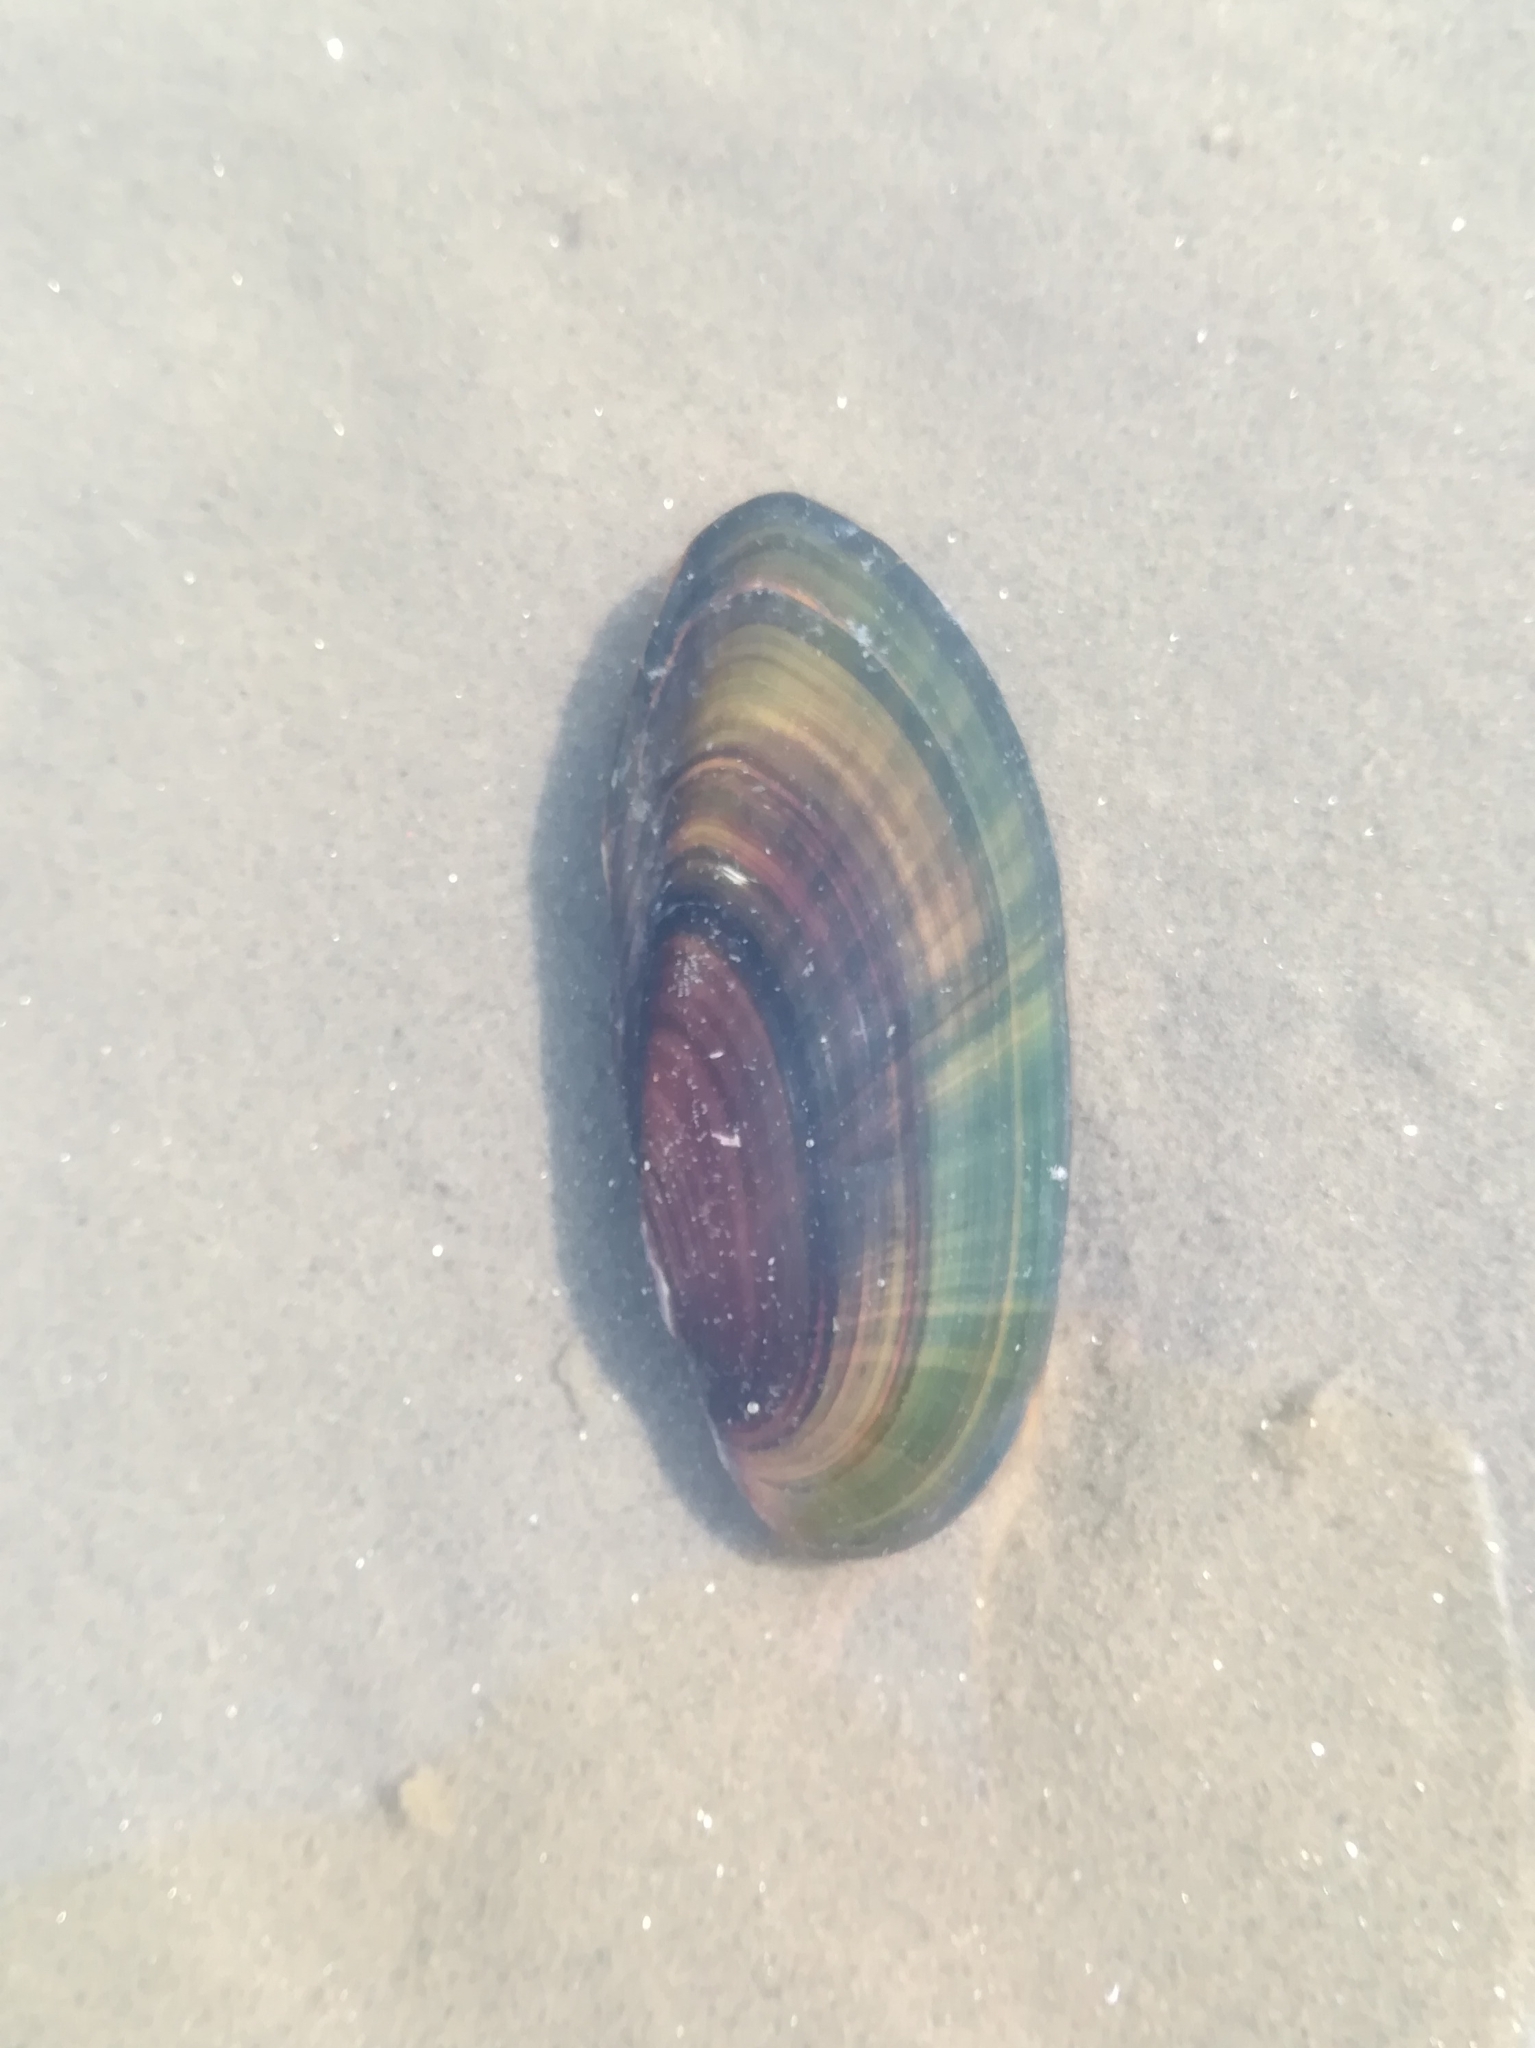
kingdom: Animalia
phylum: Mollusca
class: Bivalvia
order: Unionida
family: Unionidae
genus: Ligumia
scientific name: Ligumia recta
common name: Black sandshell
